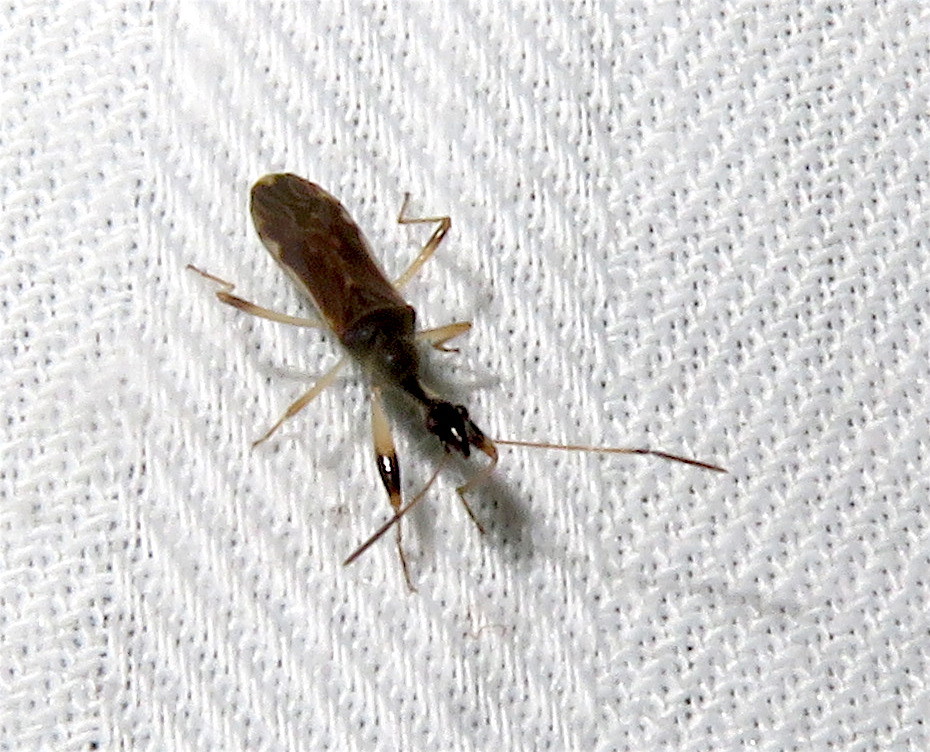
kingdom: Animalia
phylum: Arthropoda
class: Insecta
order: Hemiptera
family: Rhyparochromidae
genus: Myodocha
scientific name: Myodocha serripes
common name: Long-necked seed bug
